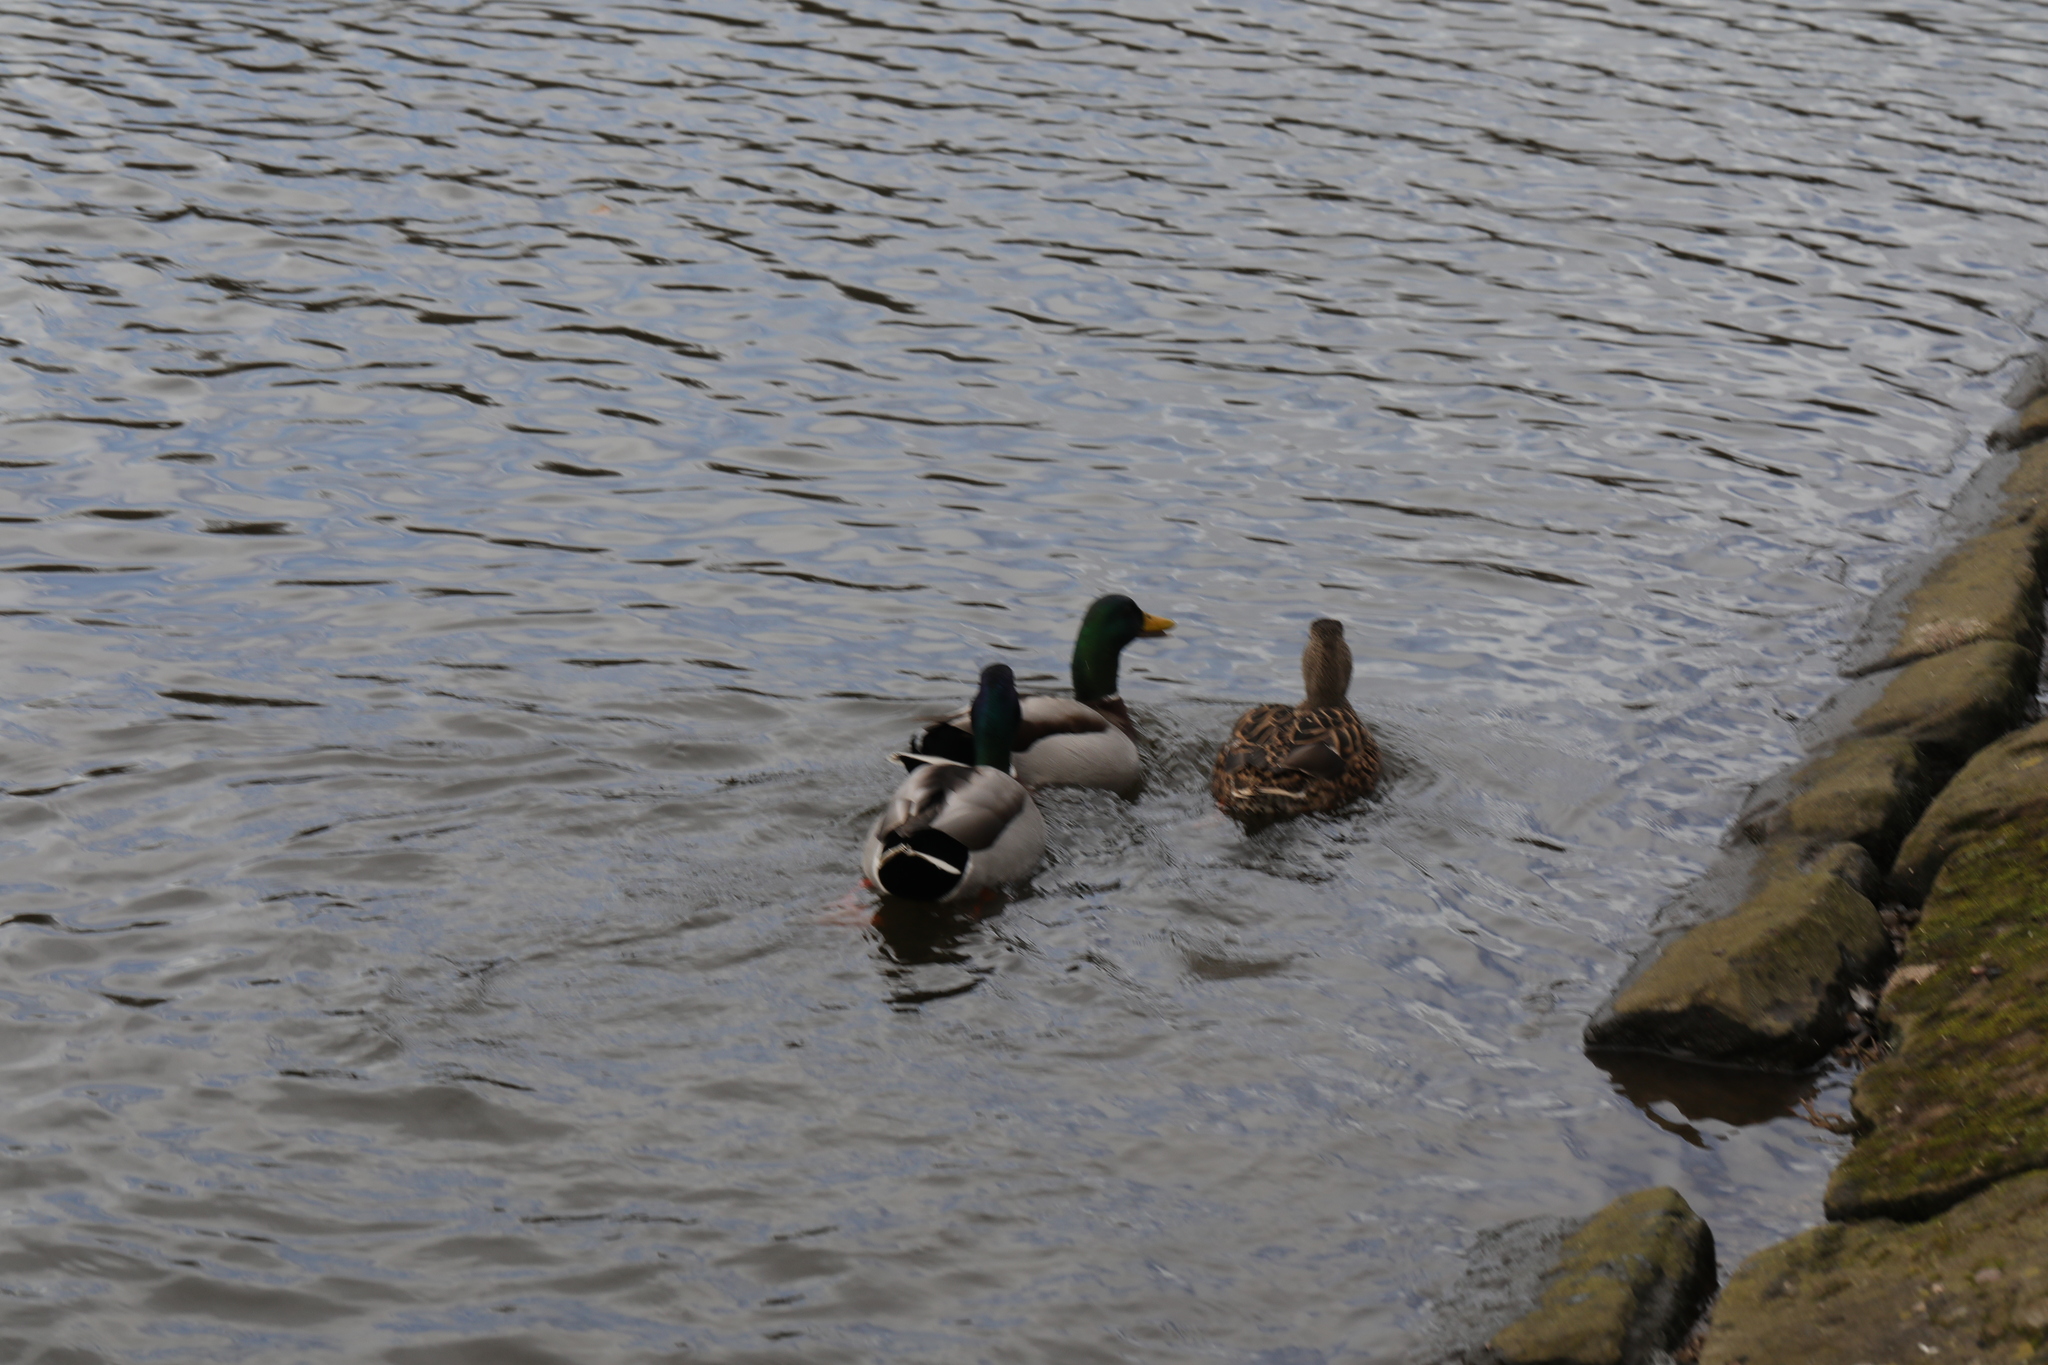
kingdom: Animalia
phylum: Chordata
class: Aves
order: Anseriformes
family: Anatidae
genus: Anas
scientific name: Anas platyrhynchos
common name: Mallard
